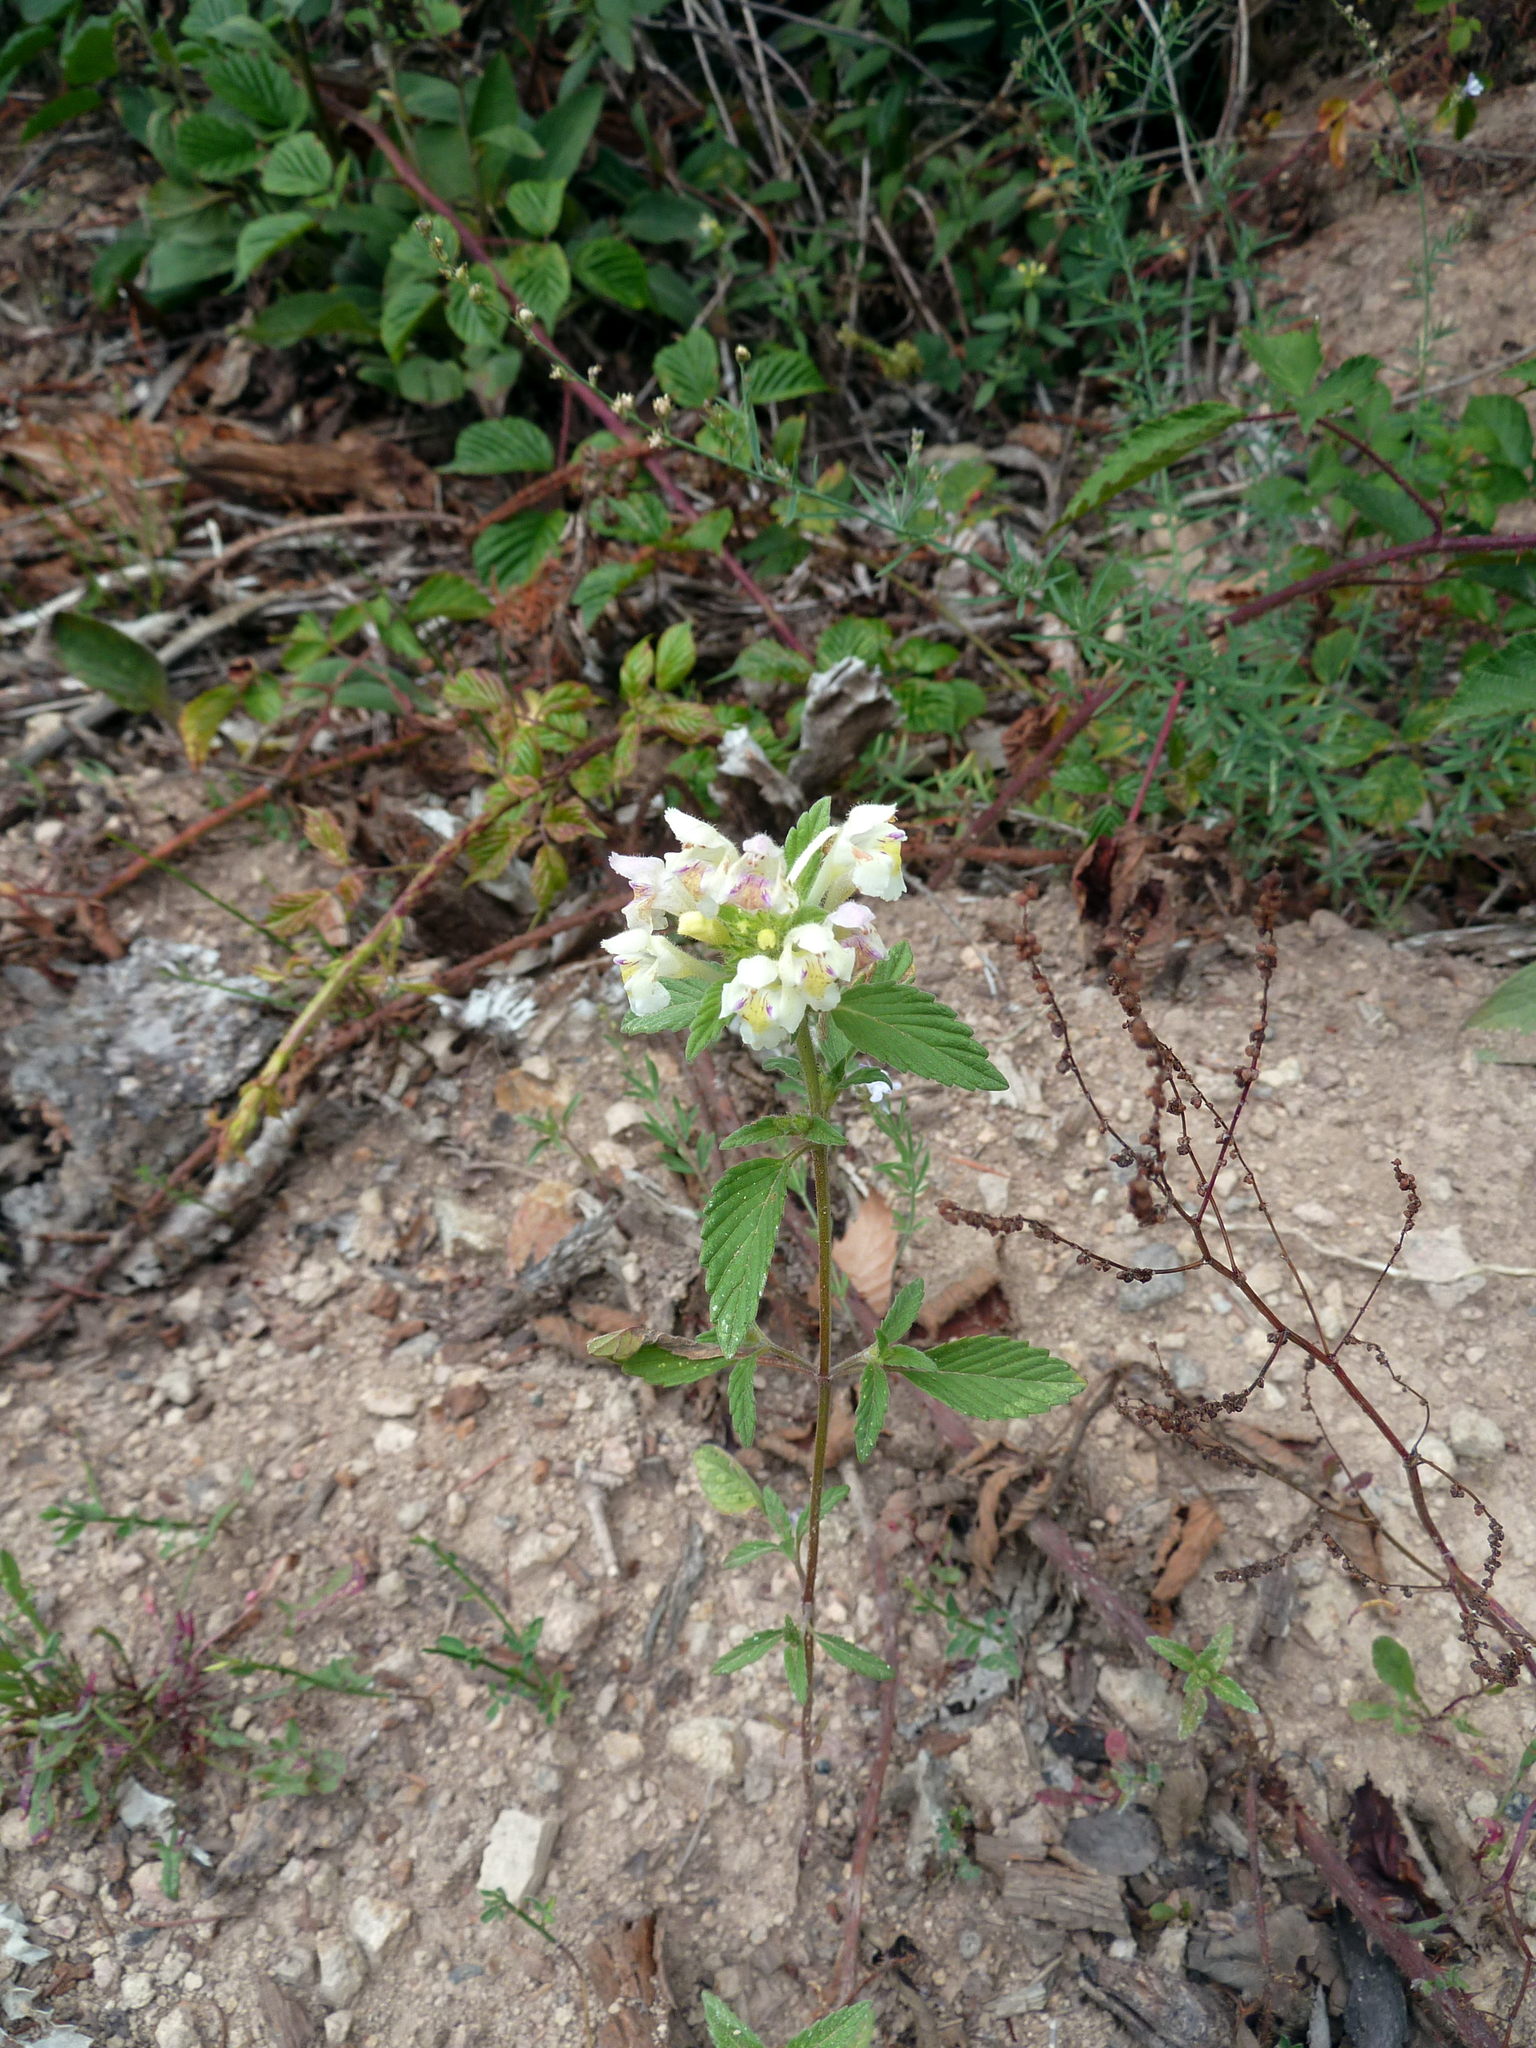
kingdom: Plantae
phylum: Tracheophyta
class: Magnoliopsida
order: Lamiales
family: Lamiaceae
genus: Galeopsis
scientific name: Galeopsis segetum
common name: Downy hemp-nettle
